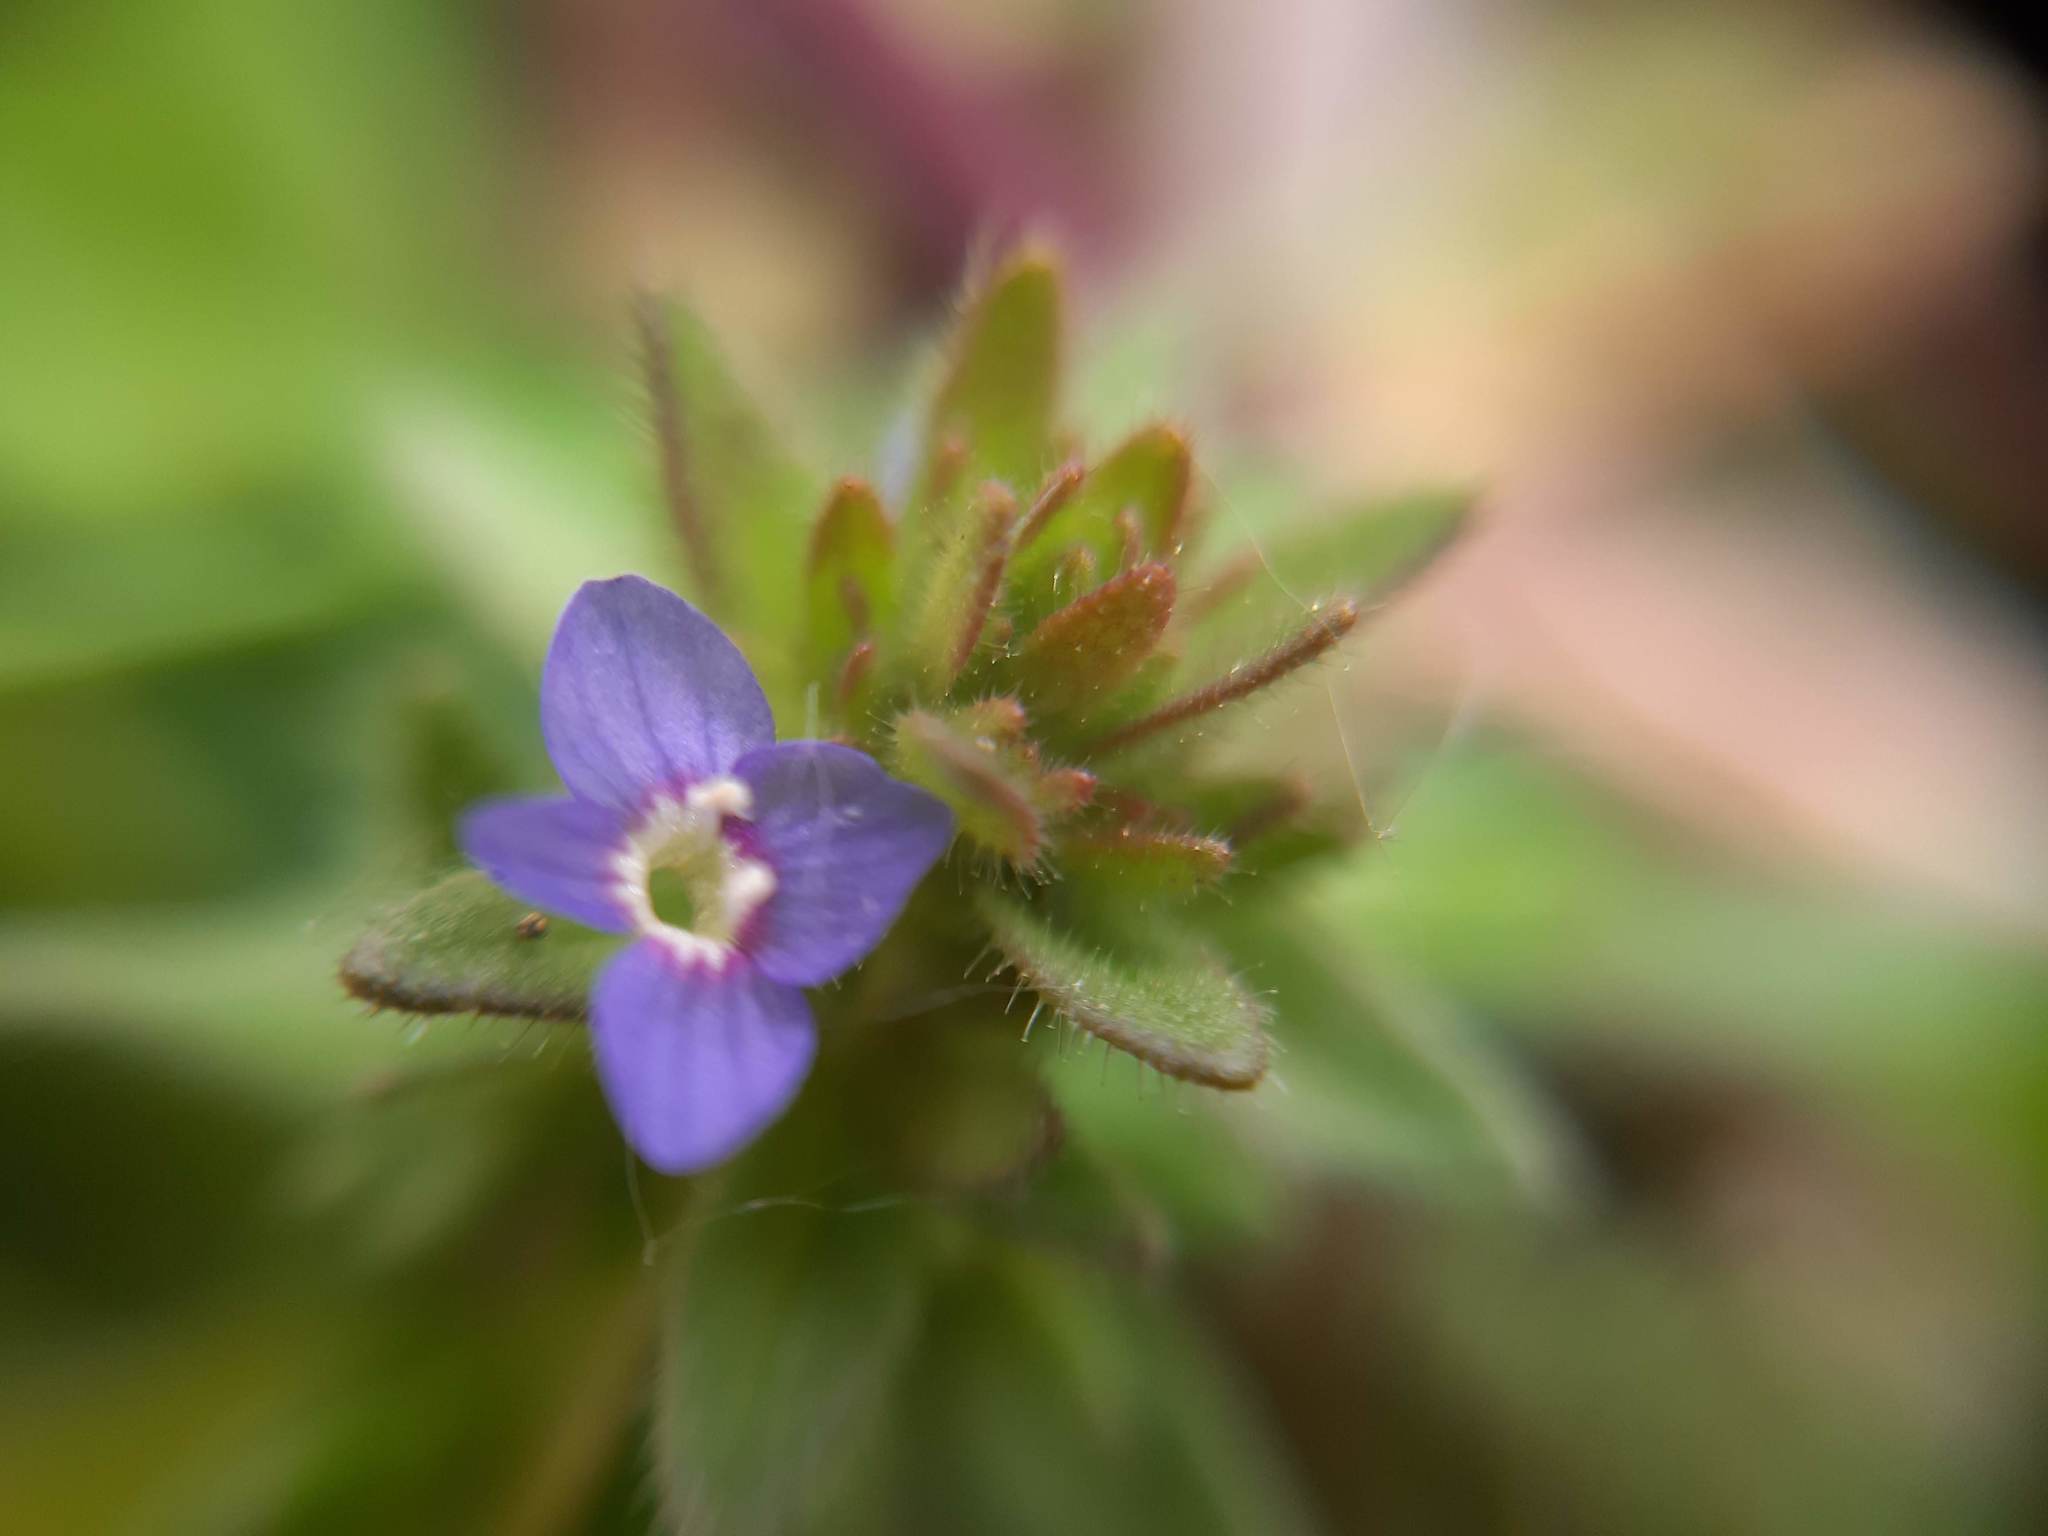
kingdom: Plantae
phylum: Tracheophyta
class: Magnoliopsida
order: Lamiales
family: Plantaginaceae
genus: Veronica
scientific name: Veronica arvensis
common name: Corn speedwell
